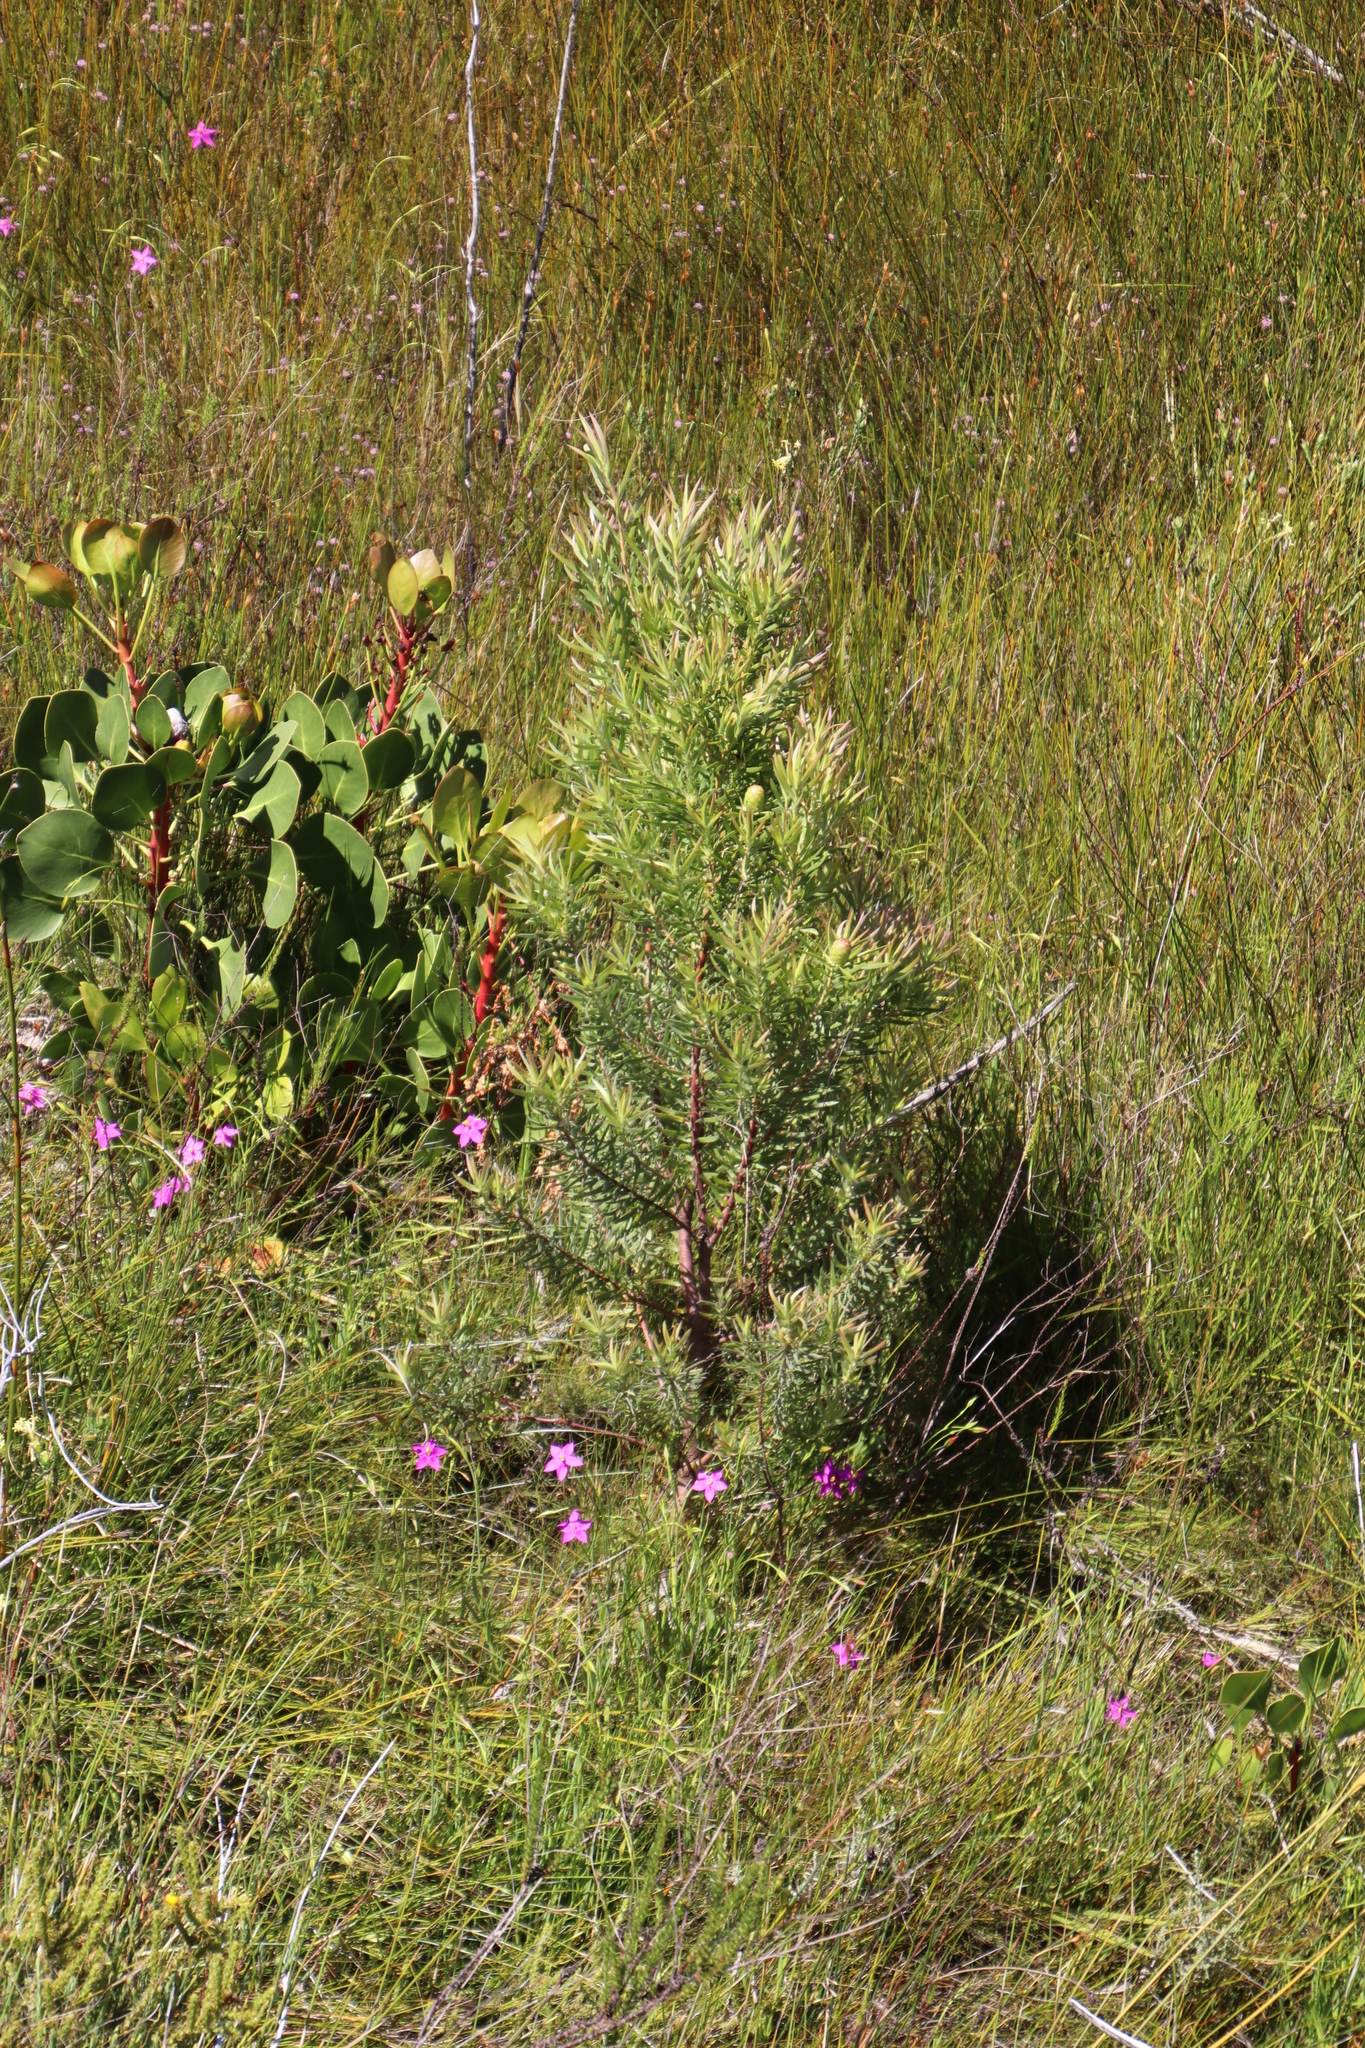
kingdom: Plantae
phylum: Tracheophyta
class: Magnoliopsida
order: Proteales
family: Proteaceae
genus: Leucadendron
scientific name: Leucadendron salicifolium
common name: Common stream conebush
